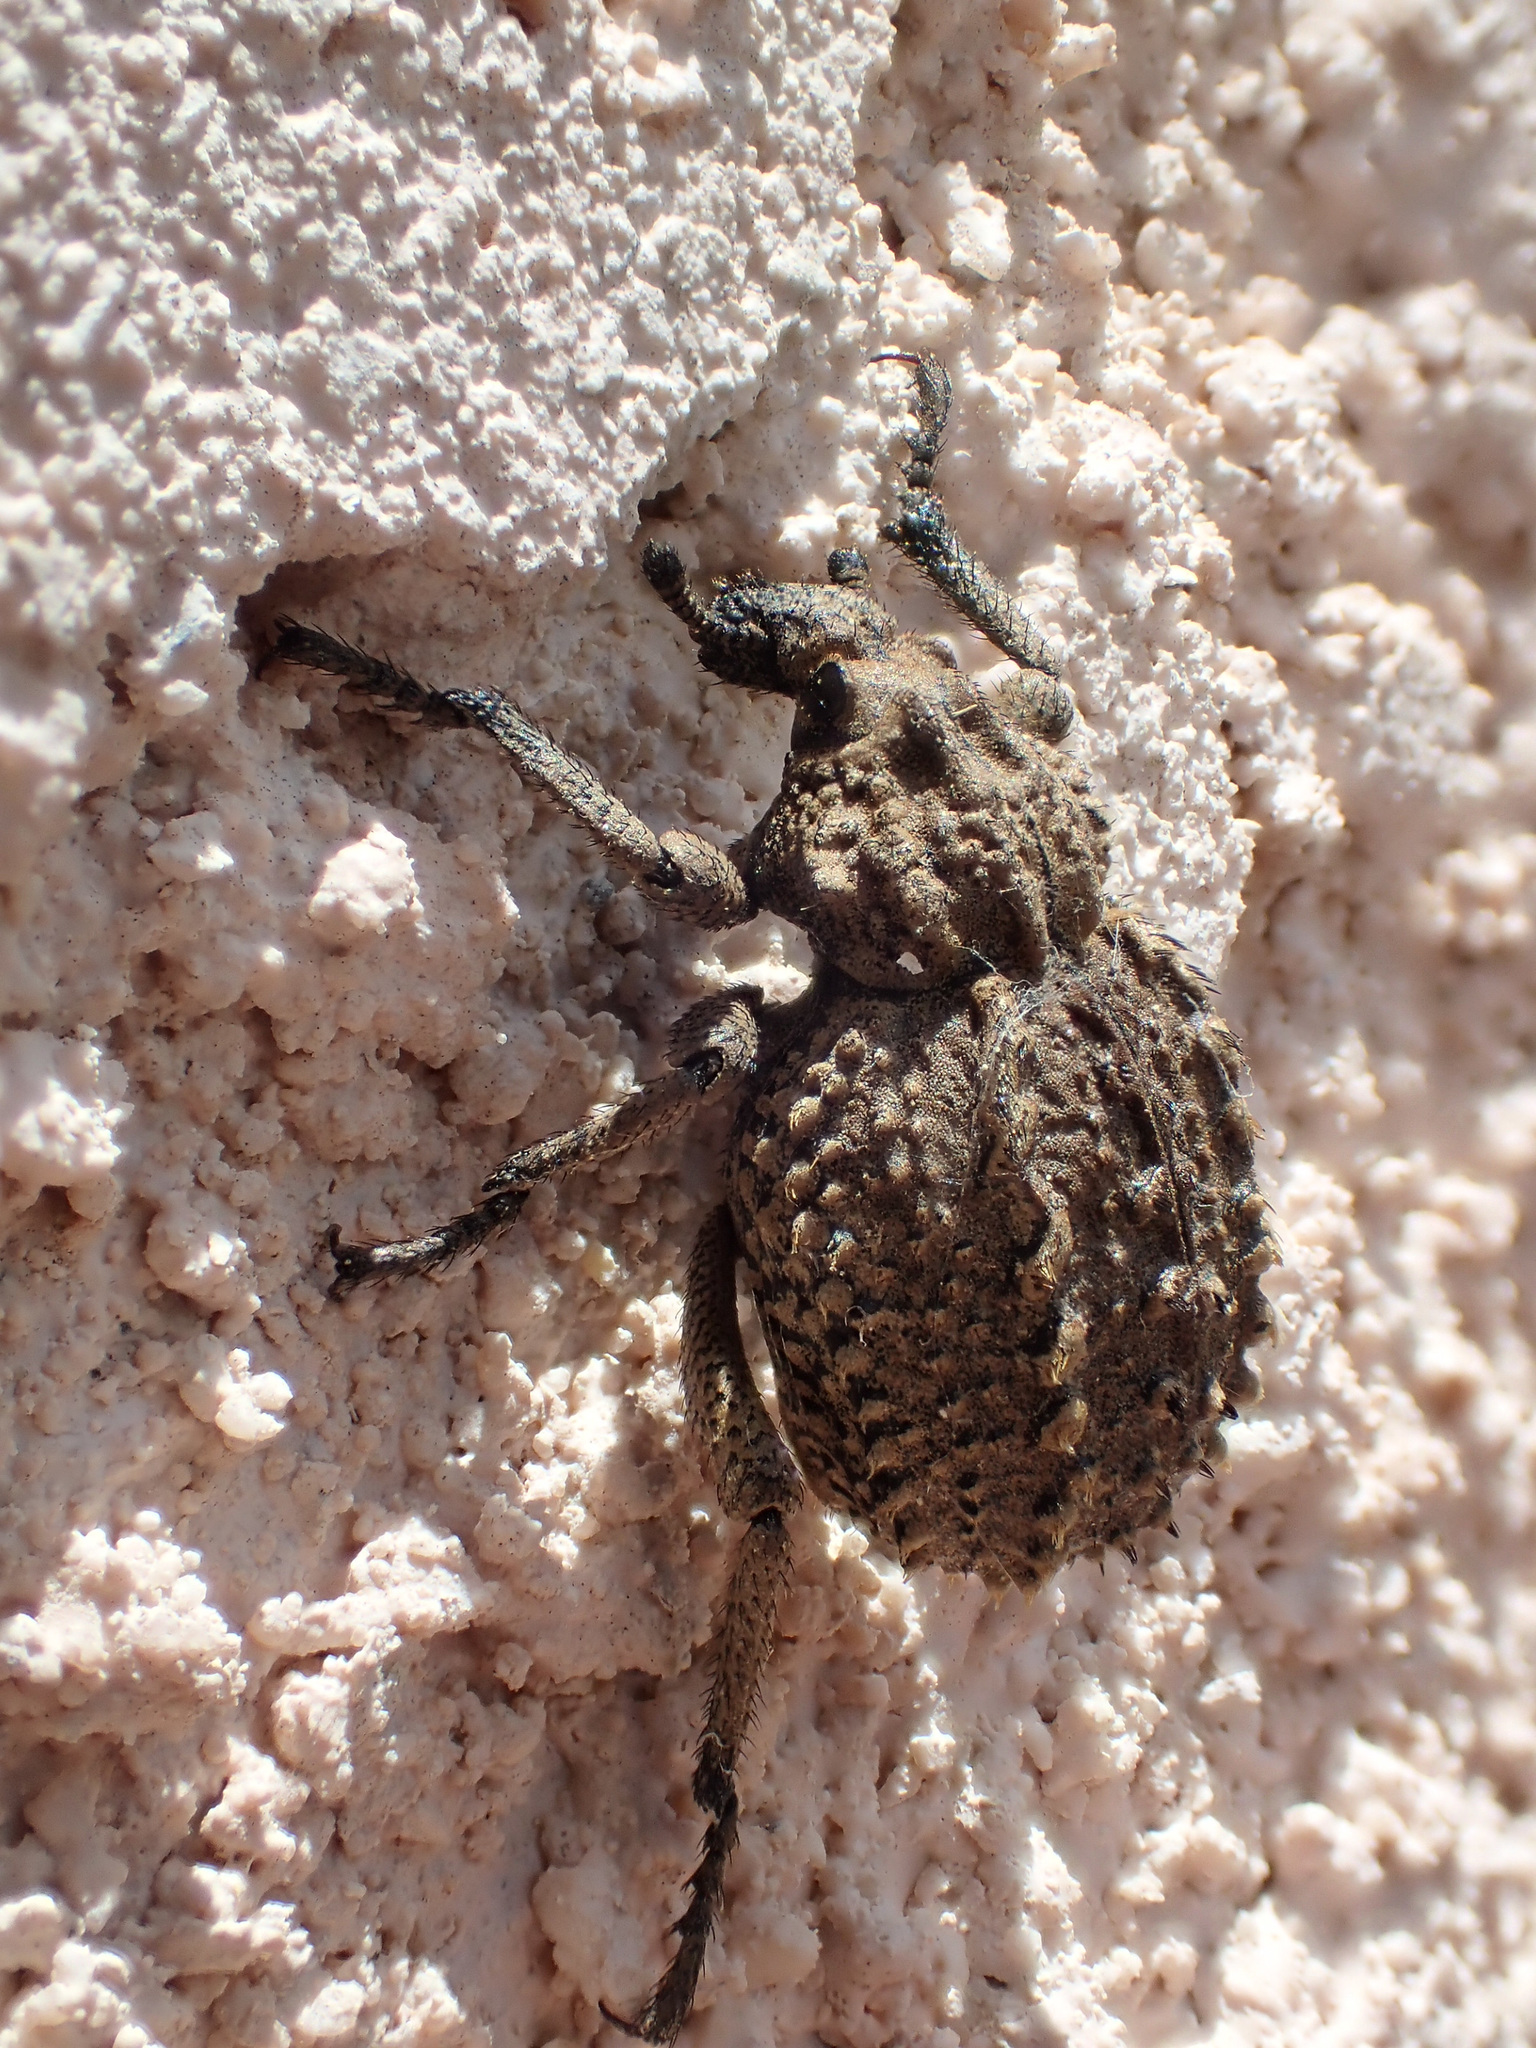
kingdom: Animalia
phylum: Arthropoda
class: Insecta
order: Coleoptera
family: Brachyceridae
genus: Brachycerus
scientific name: Brachycerus muricatus
